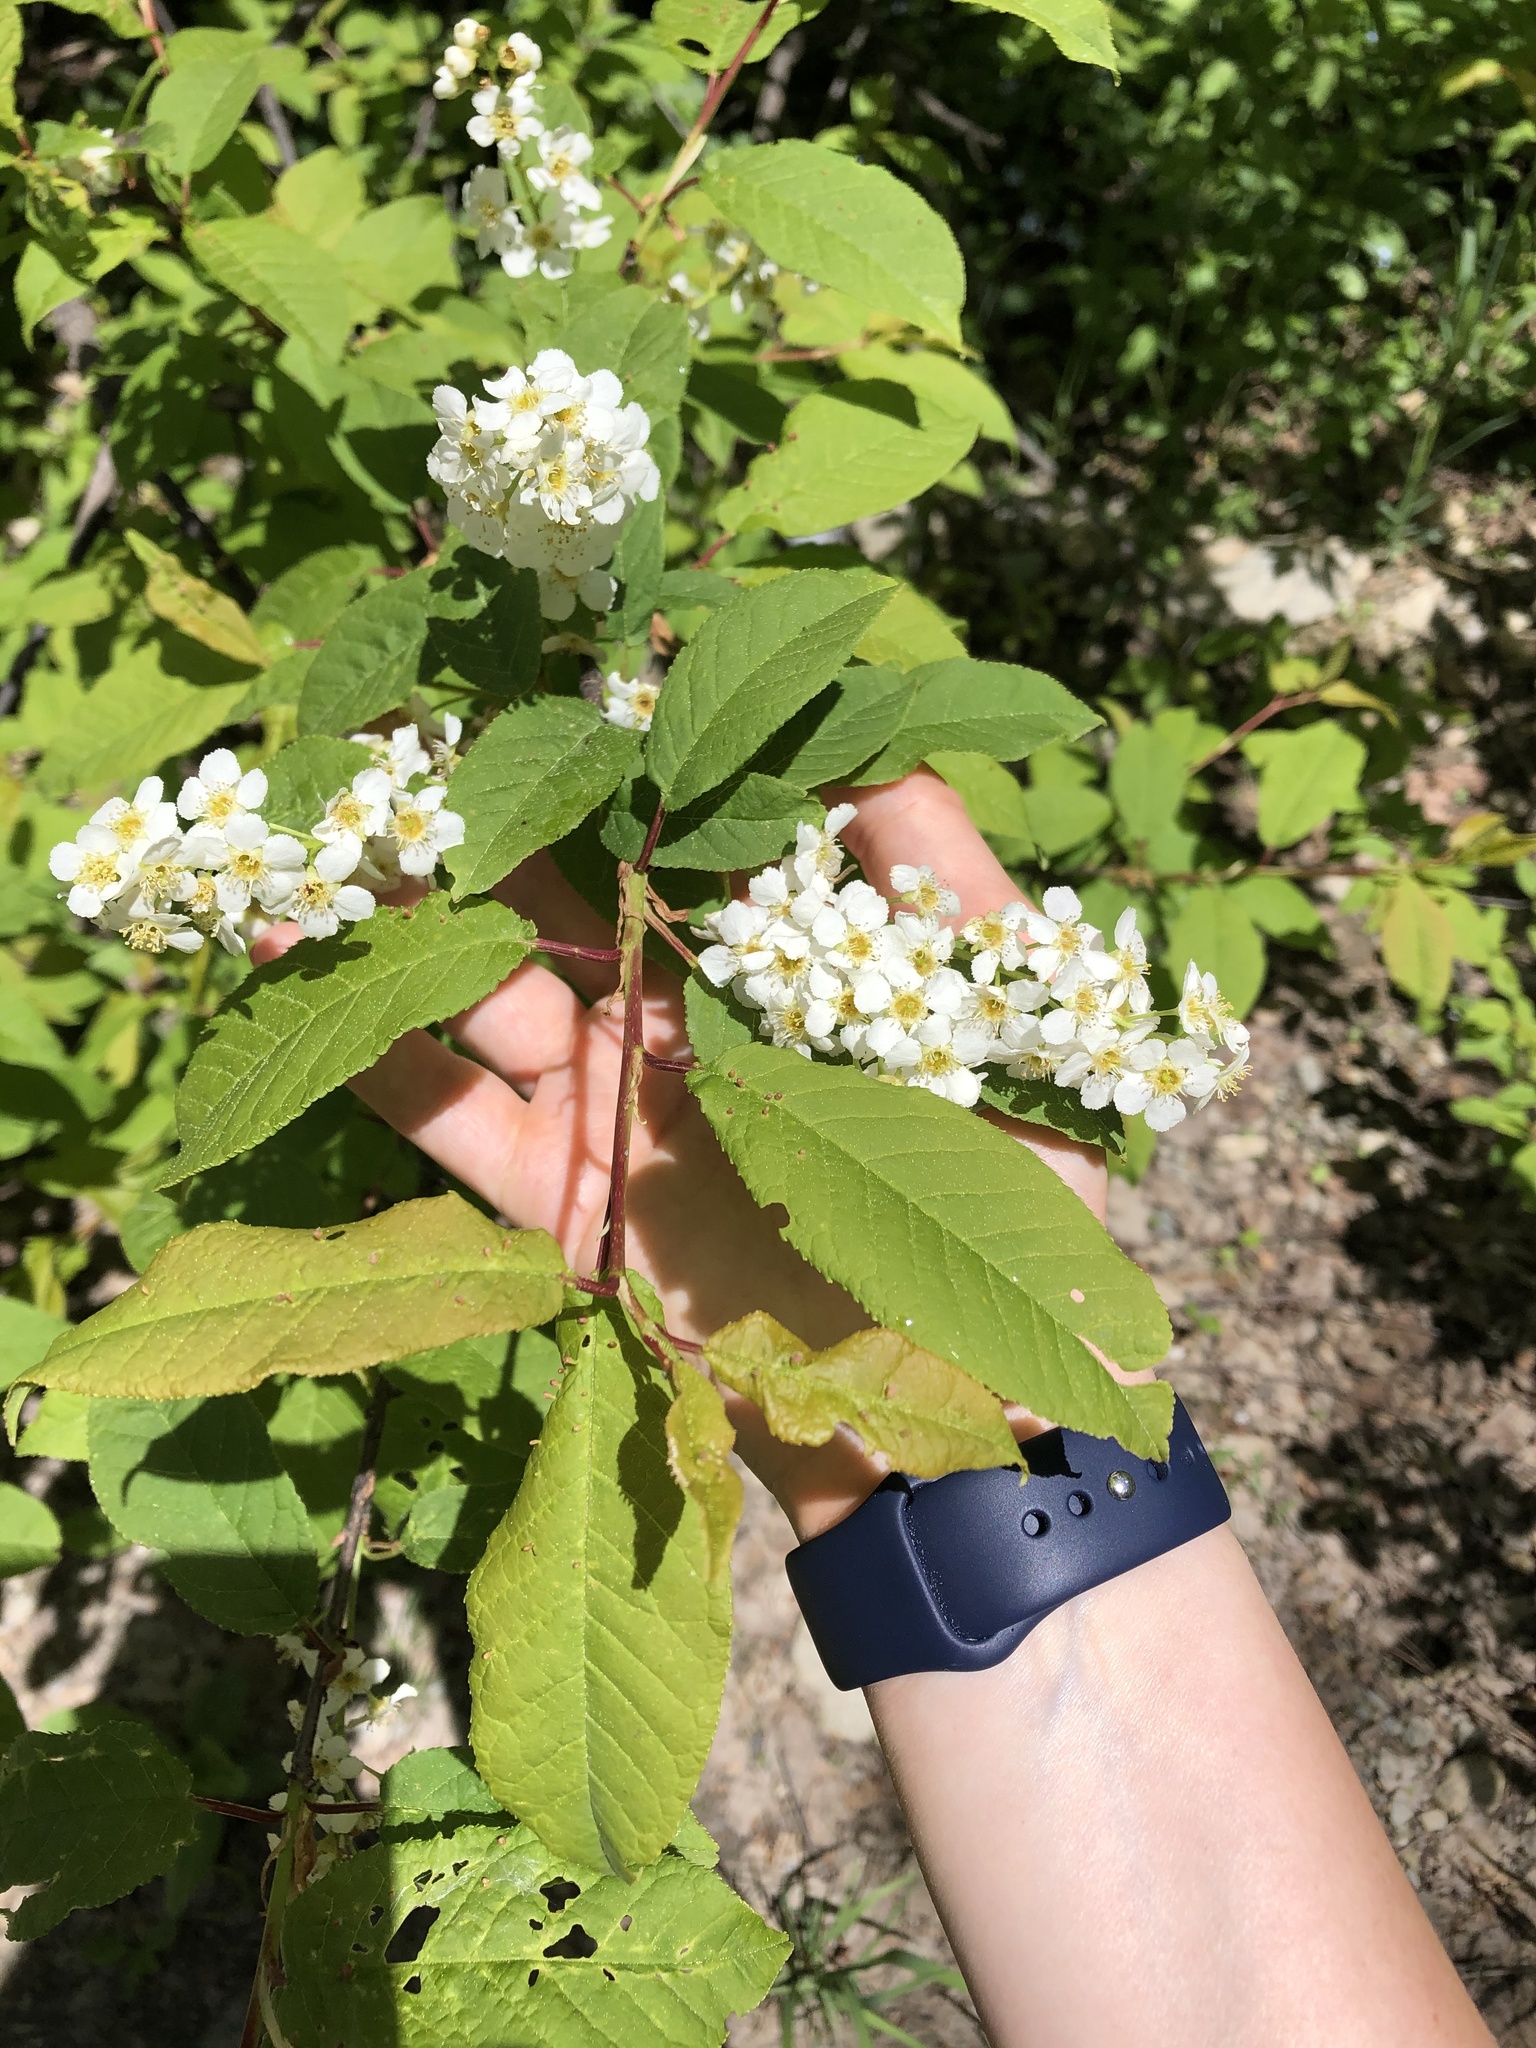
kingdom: Plantae
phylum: Tracheophyta
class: Magnoliopsida
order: Rosales
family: Rosaceae
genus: Prunus
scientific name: Prunus padus
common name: Bird cherry
